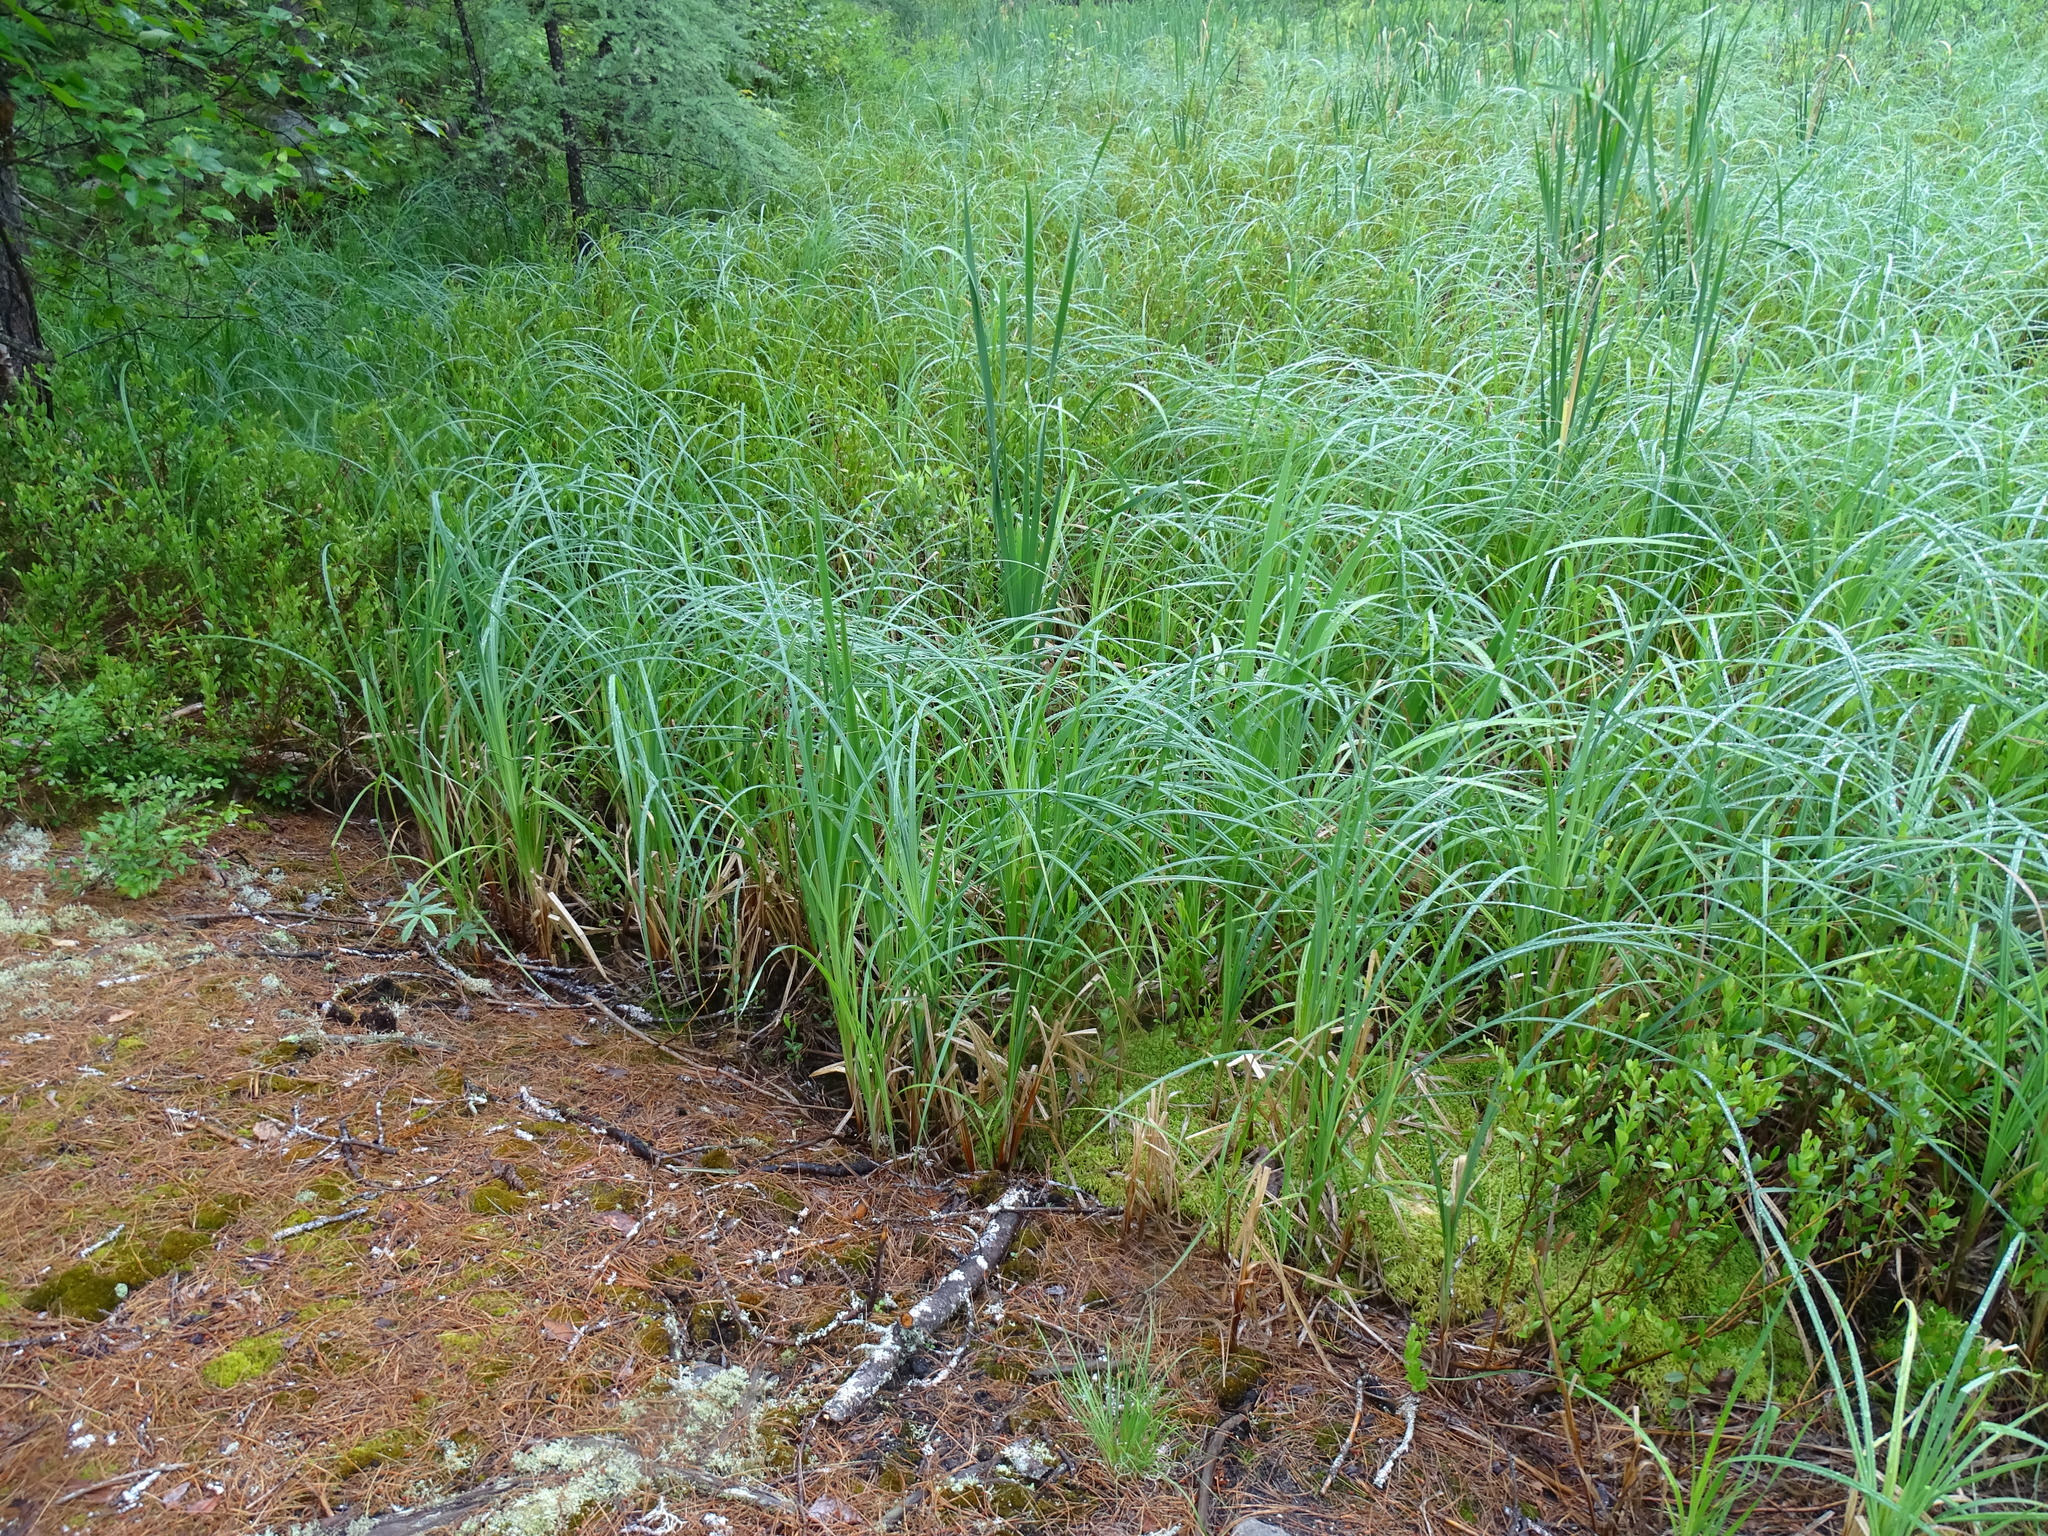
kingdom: Plantae
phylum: Tracheophyta
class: Liliopsida
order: Poales
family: Cyperaceae
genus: Carex
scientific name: Carex lacustris
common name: Common lake sedge
